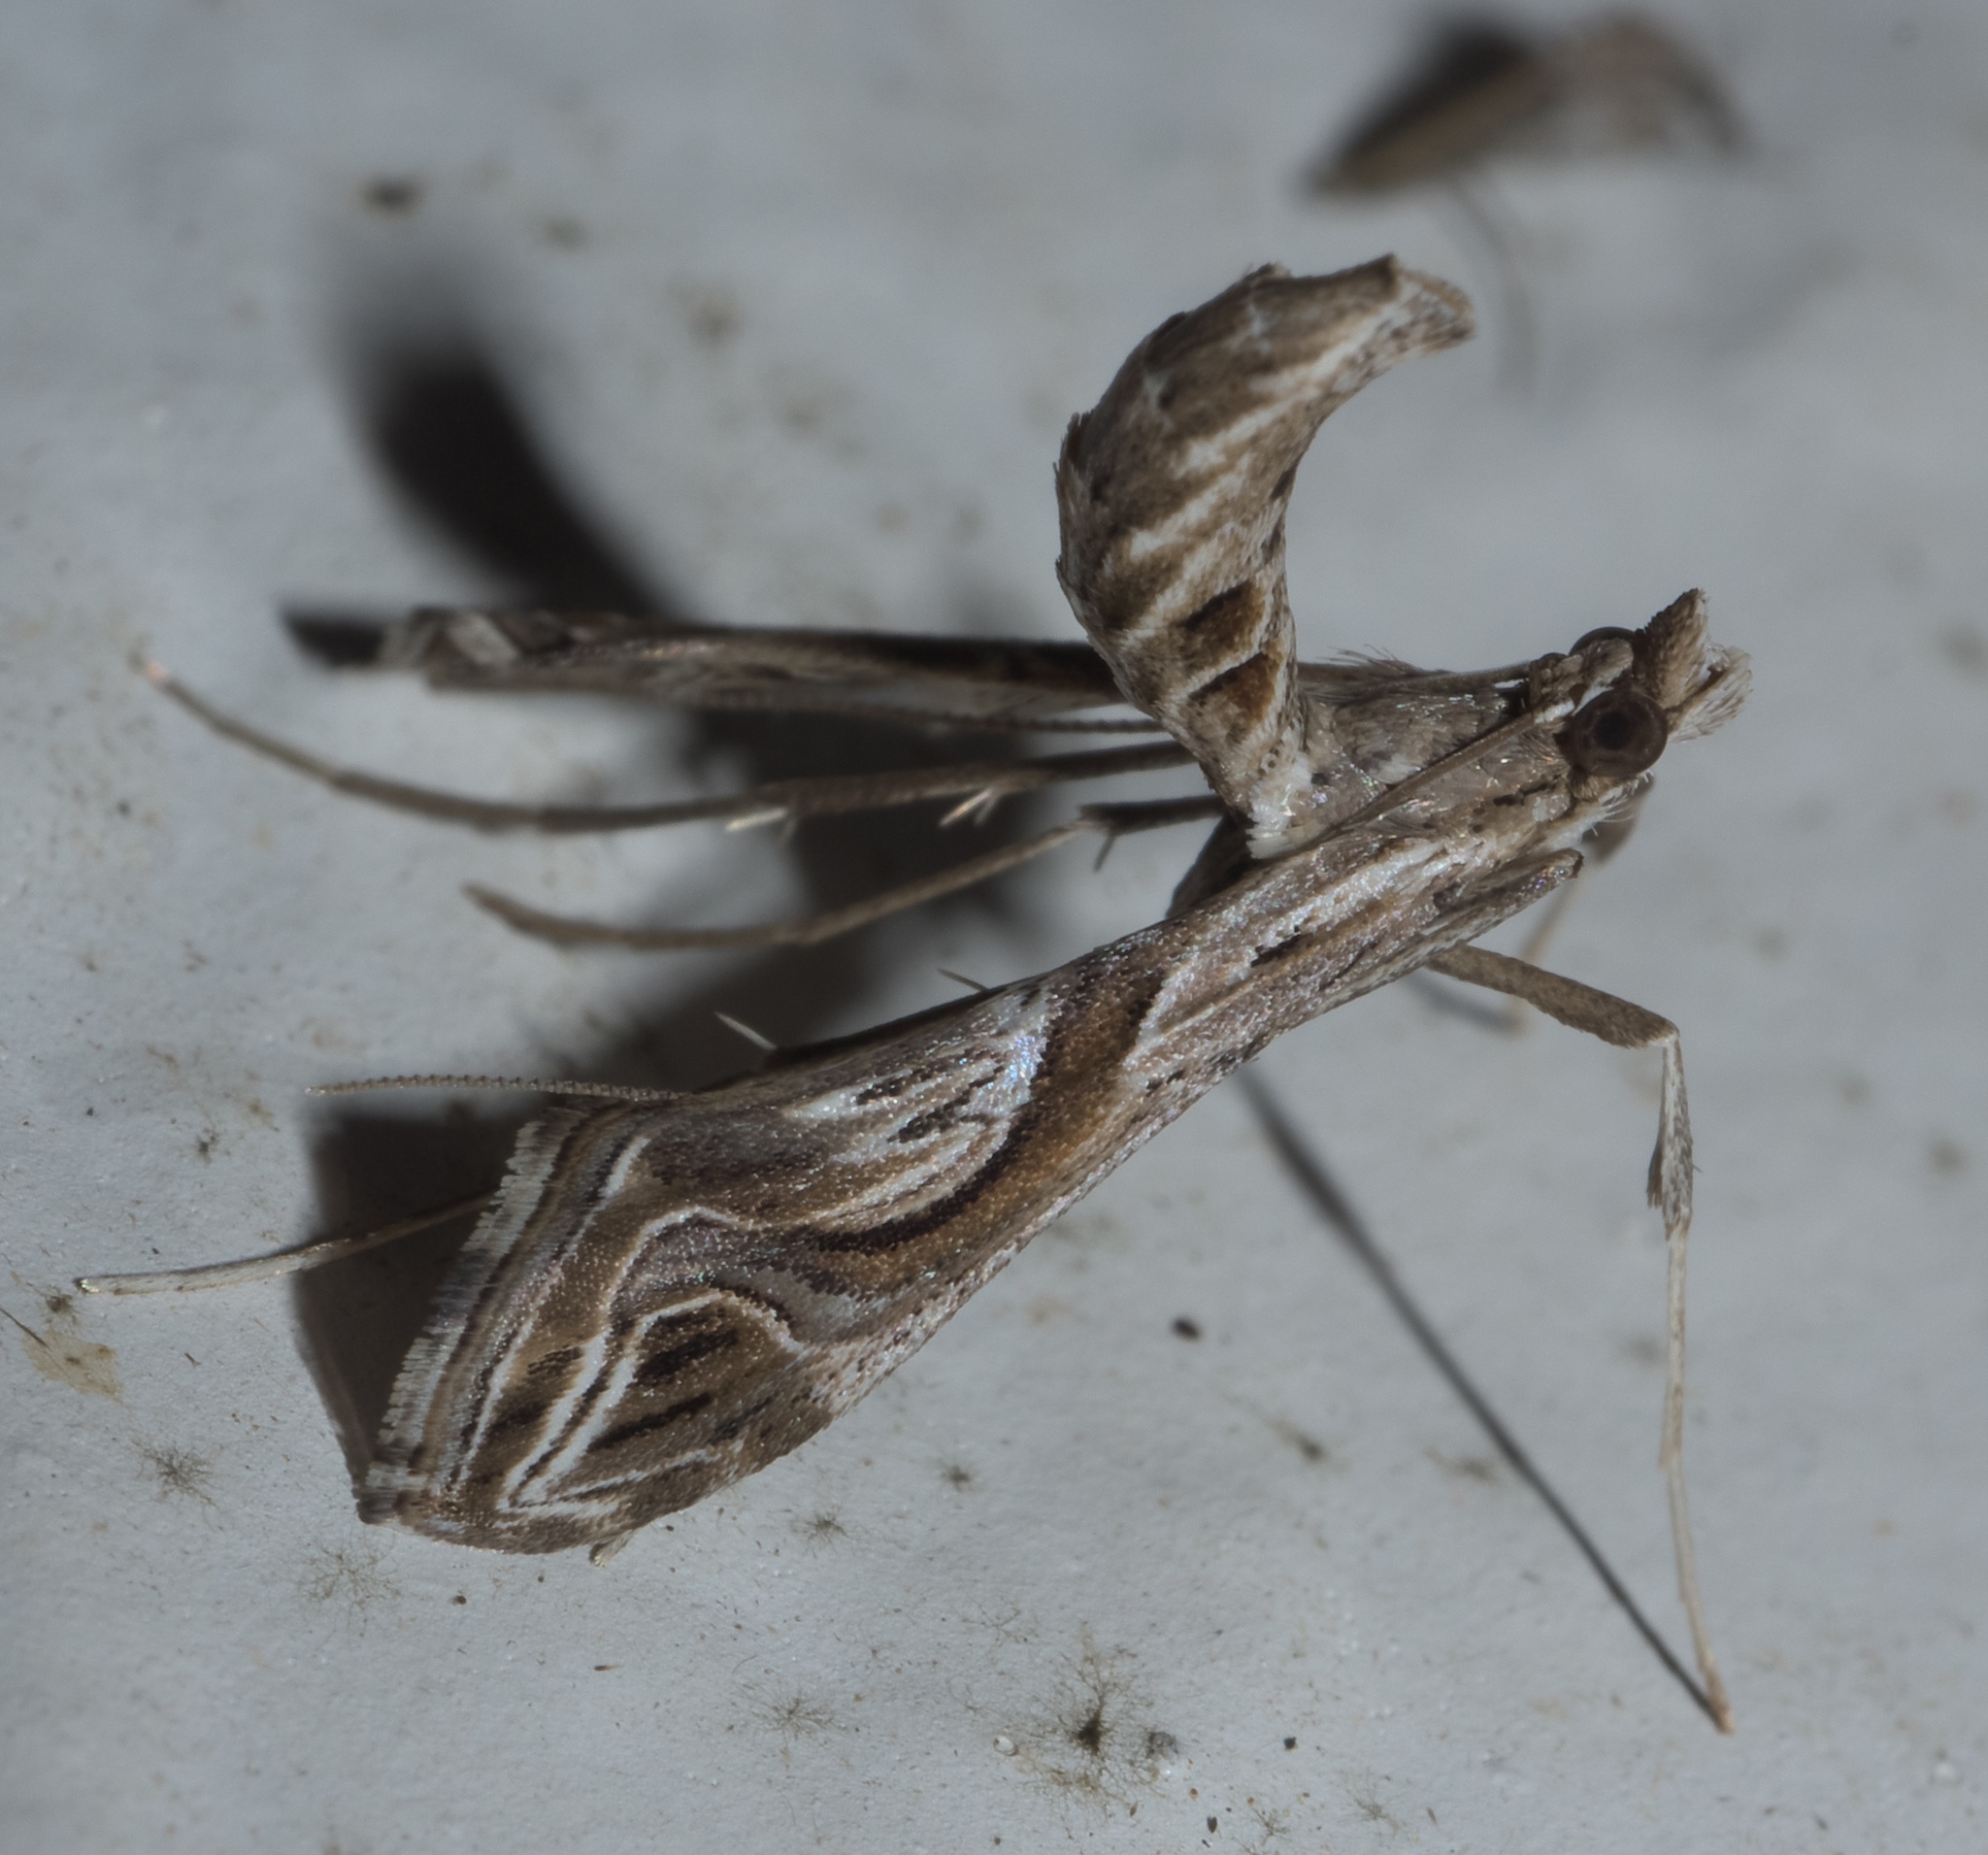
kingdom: Animalia
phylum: Arthropoda
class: Insecta
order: Lepidoptera
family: Crambidae
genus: Lineodes
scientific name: Lineodes integra
